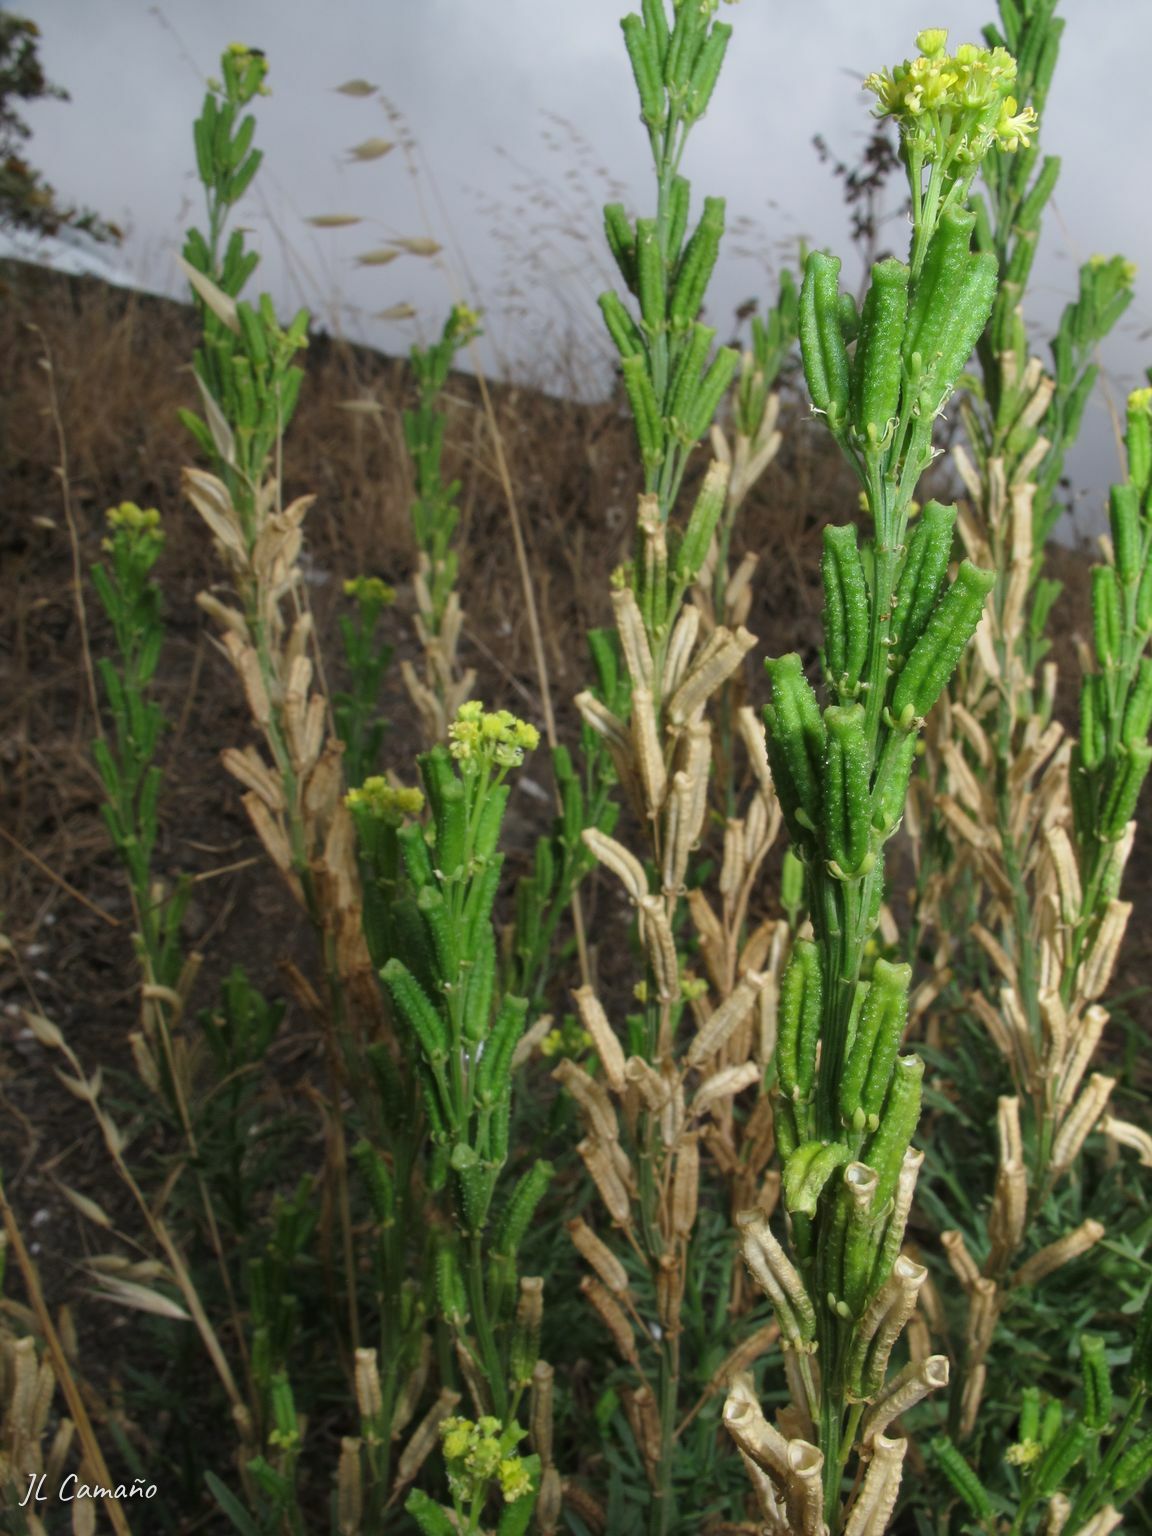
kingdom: Plantae
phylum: Tracheophyta
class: Magnoliopsida
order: Brassicales
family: Resedaceae
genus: Reseda
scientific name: Reseda crystallina
